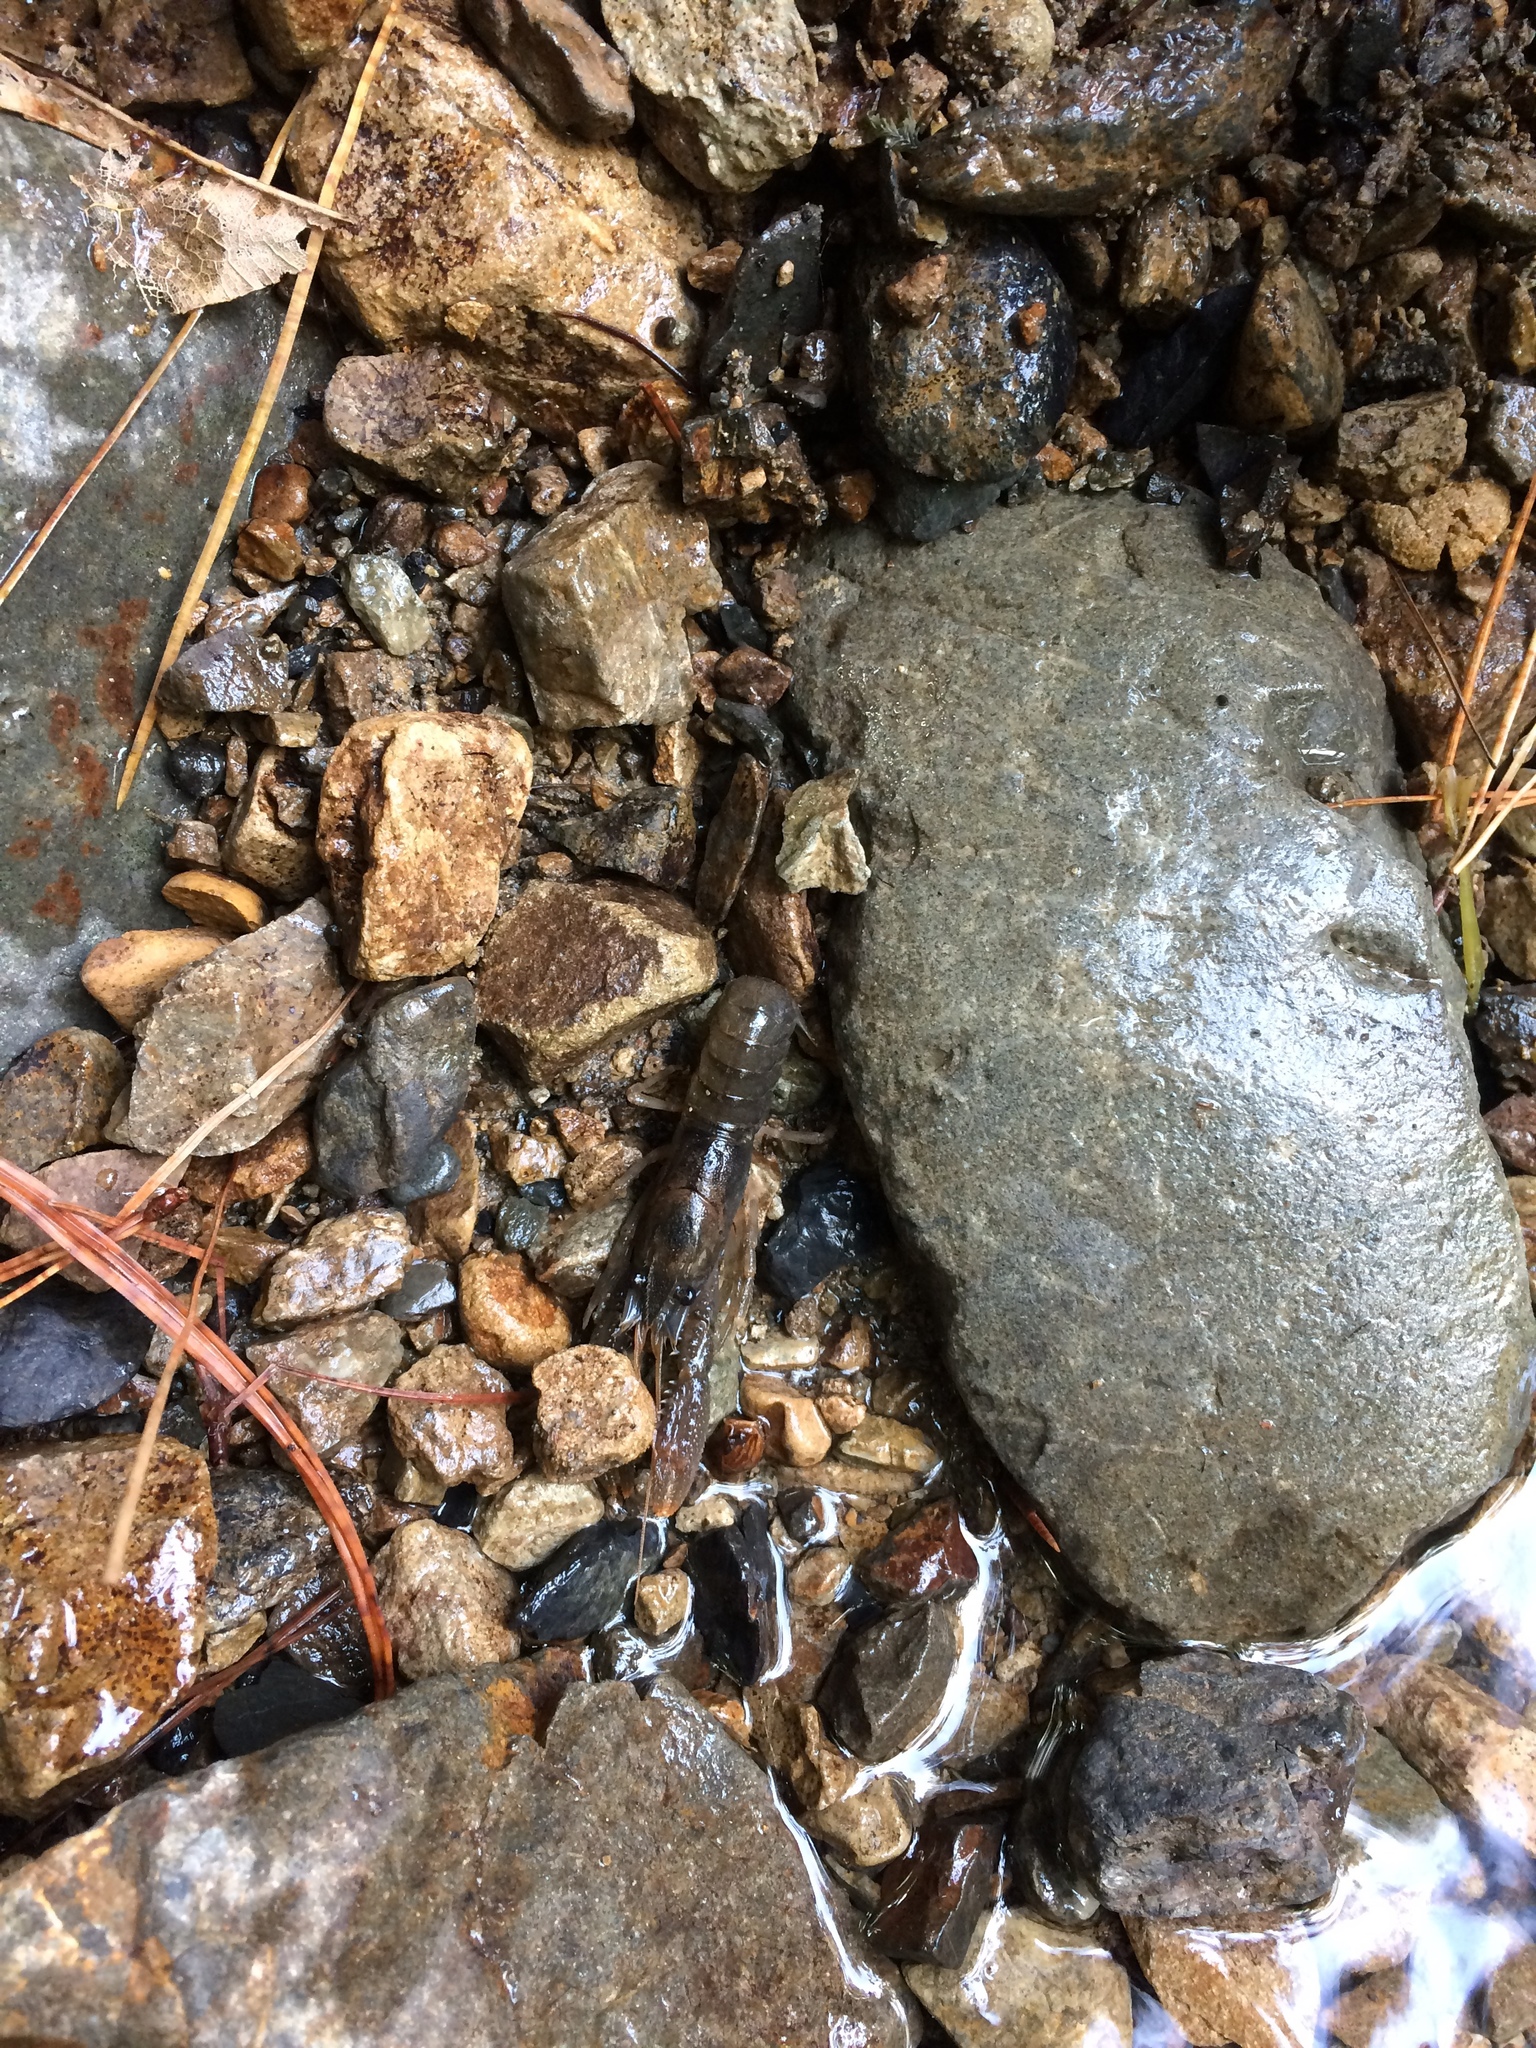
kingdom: Animalia
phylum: Arthropoda
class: Malacostraca
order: Decapoda
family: Parastacidae
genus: Paranephrops
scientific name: Paranephrops planifrons
